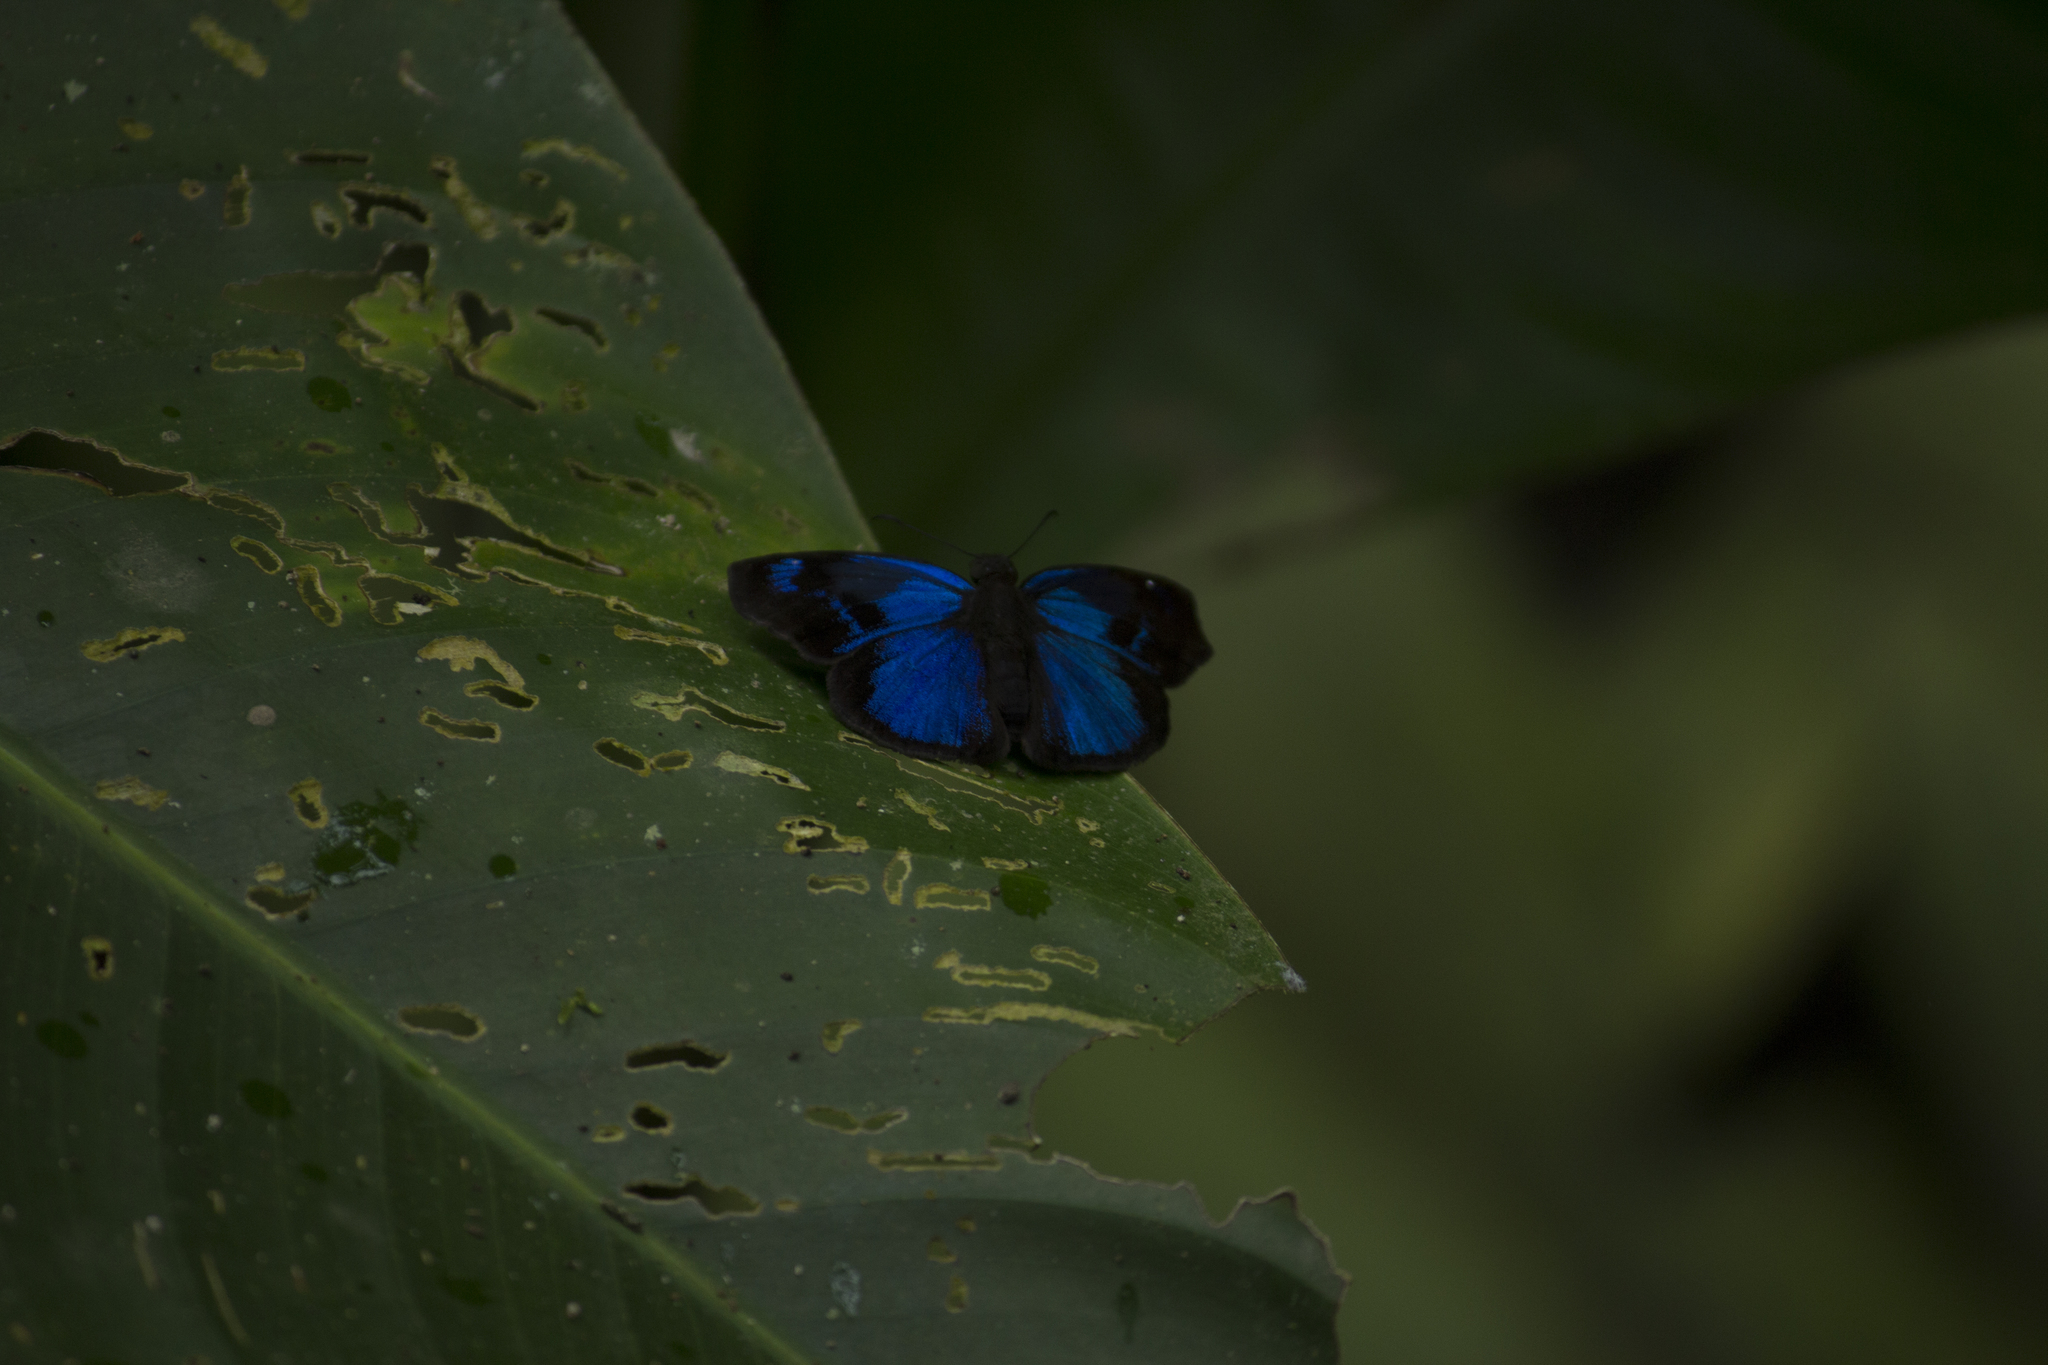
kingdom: Animalia
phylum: Arthropoda
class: Insecta
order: Lepidoptera
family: Hesperiidae
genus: Paches
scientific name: Paches loxus
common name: Glorious blue-skipper
